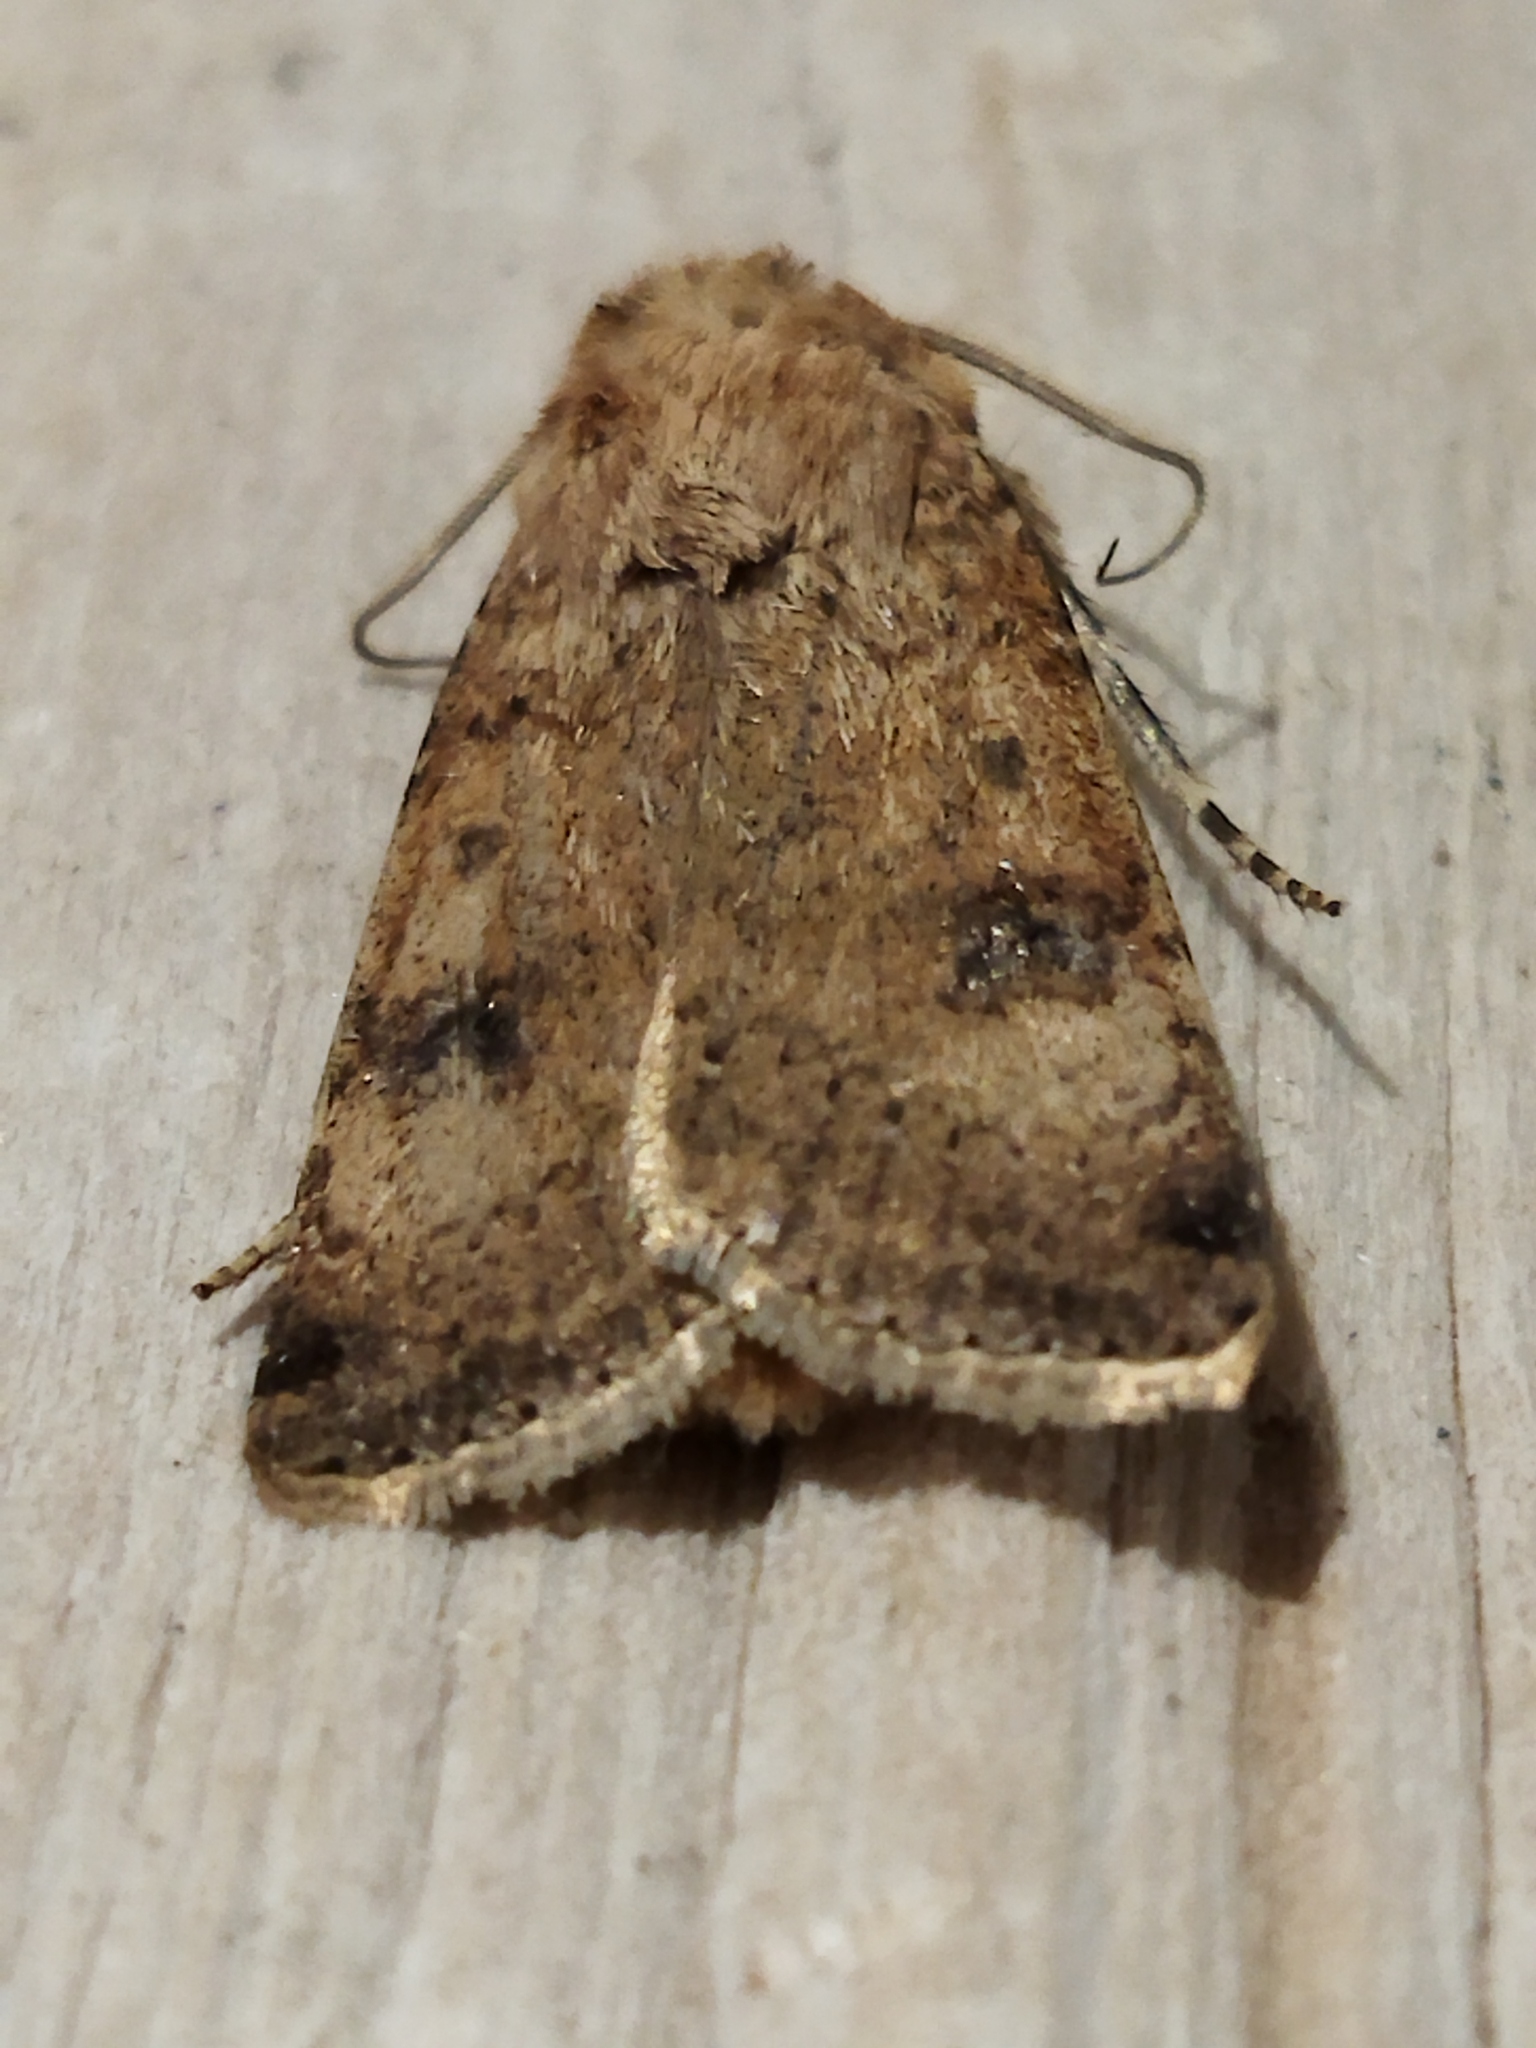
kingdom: Animalia
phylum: Arthropoda
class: Insecta
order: Lepidoptera
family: Noctuidae
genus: Agrotis
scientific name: Agrotis trux
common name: Crescent dart
